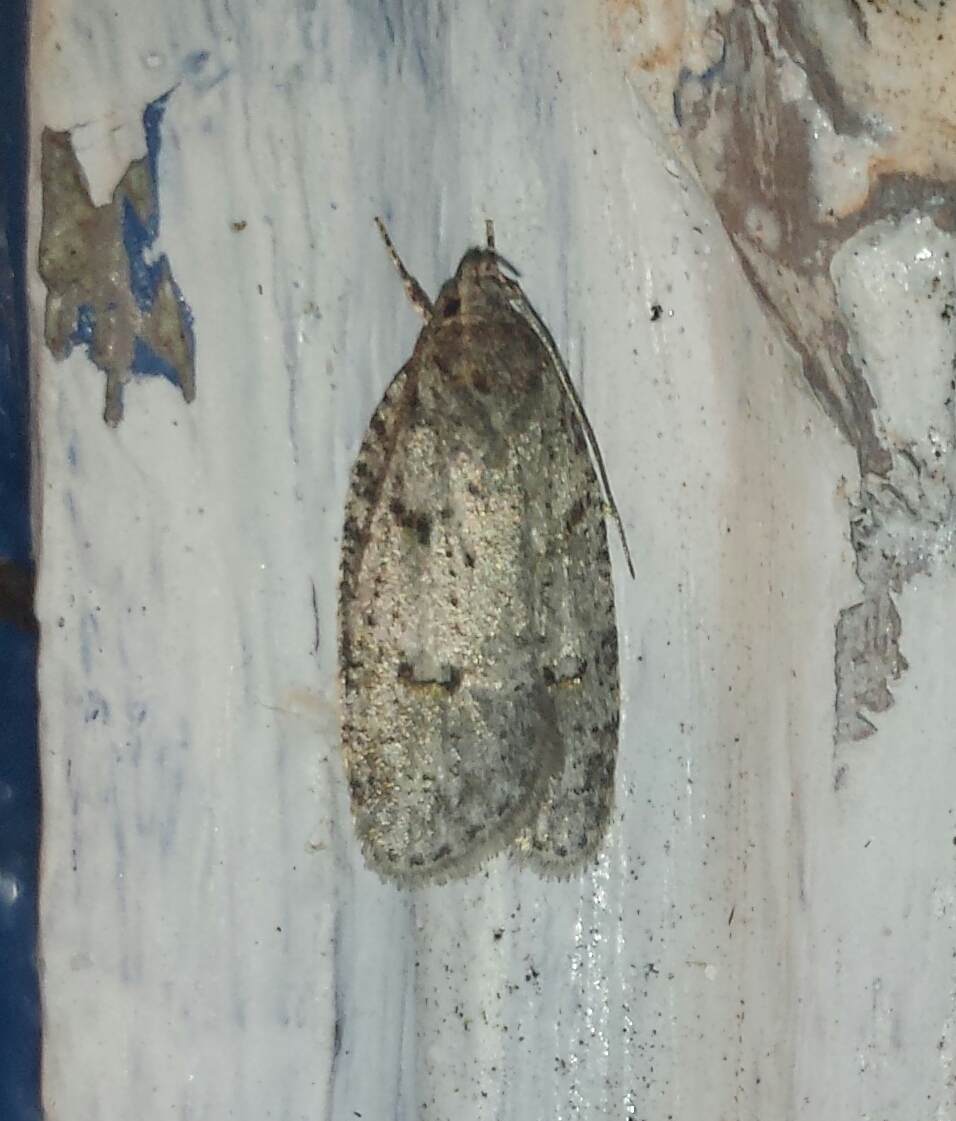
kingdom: Animalia
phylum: Arthropoda
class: Insecta
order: Lepidoptera
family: Depressariidae
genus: Bibarrambla
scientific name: Bibarrambla allenella
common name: Bog bibarrambla moth
